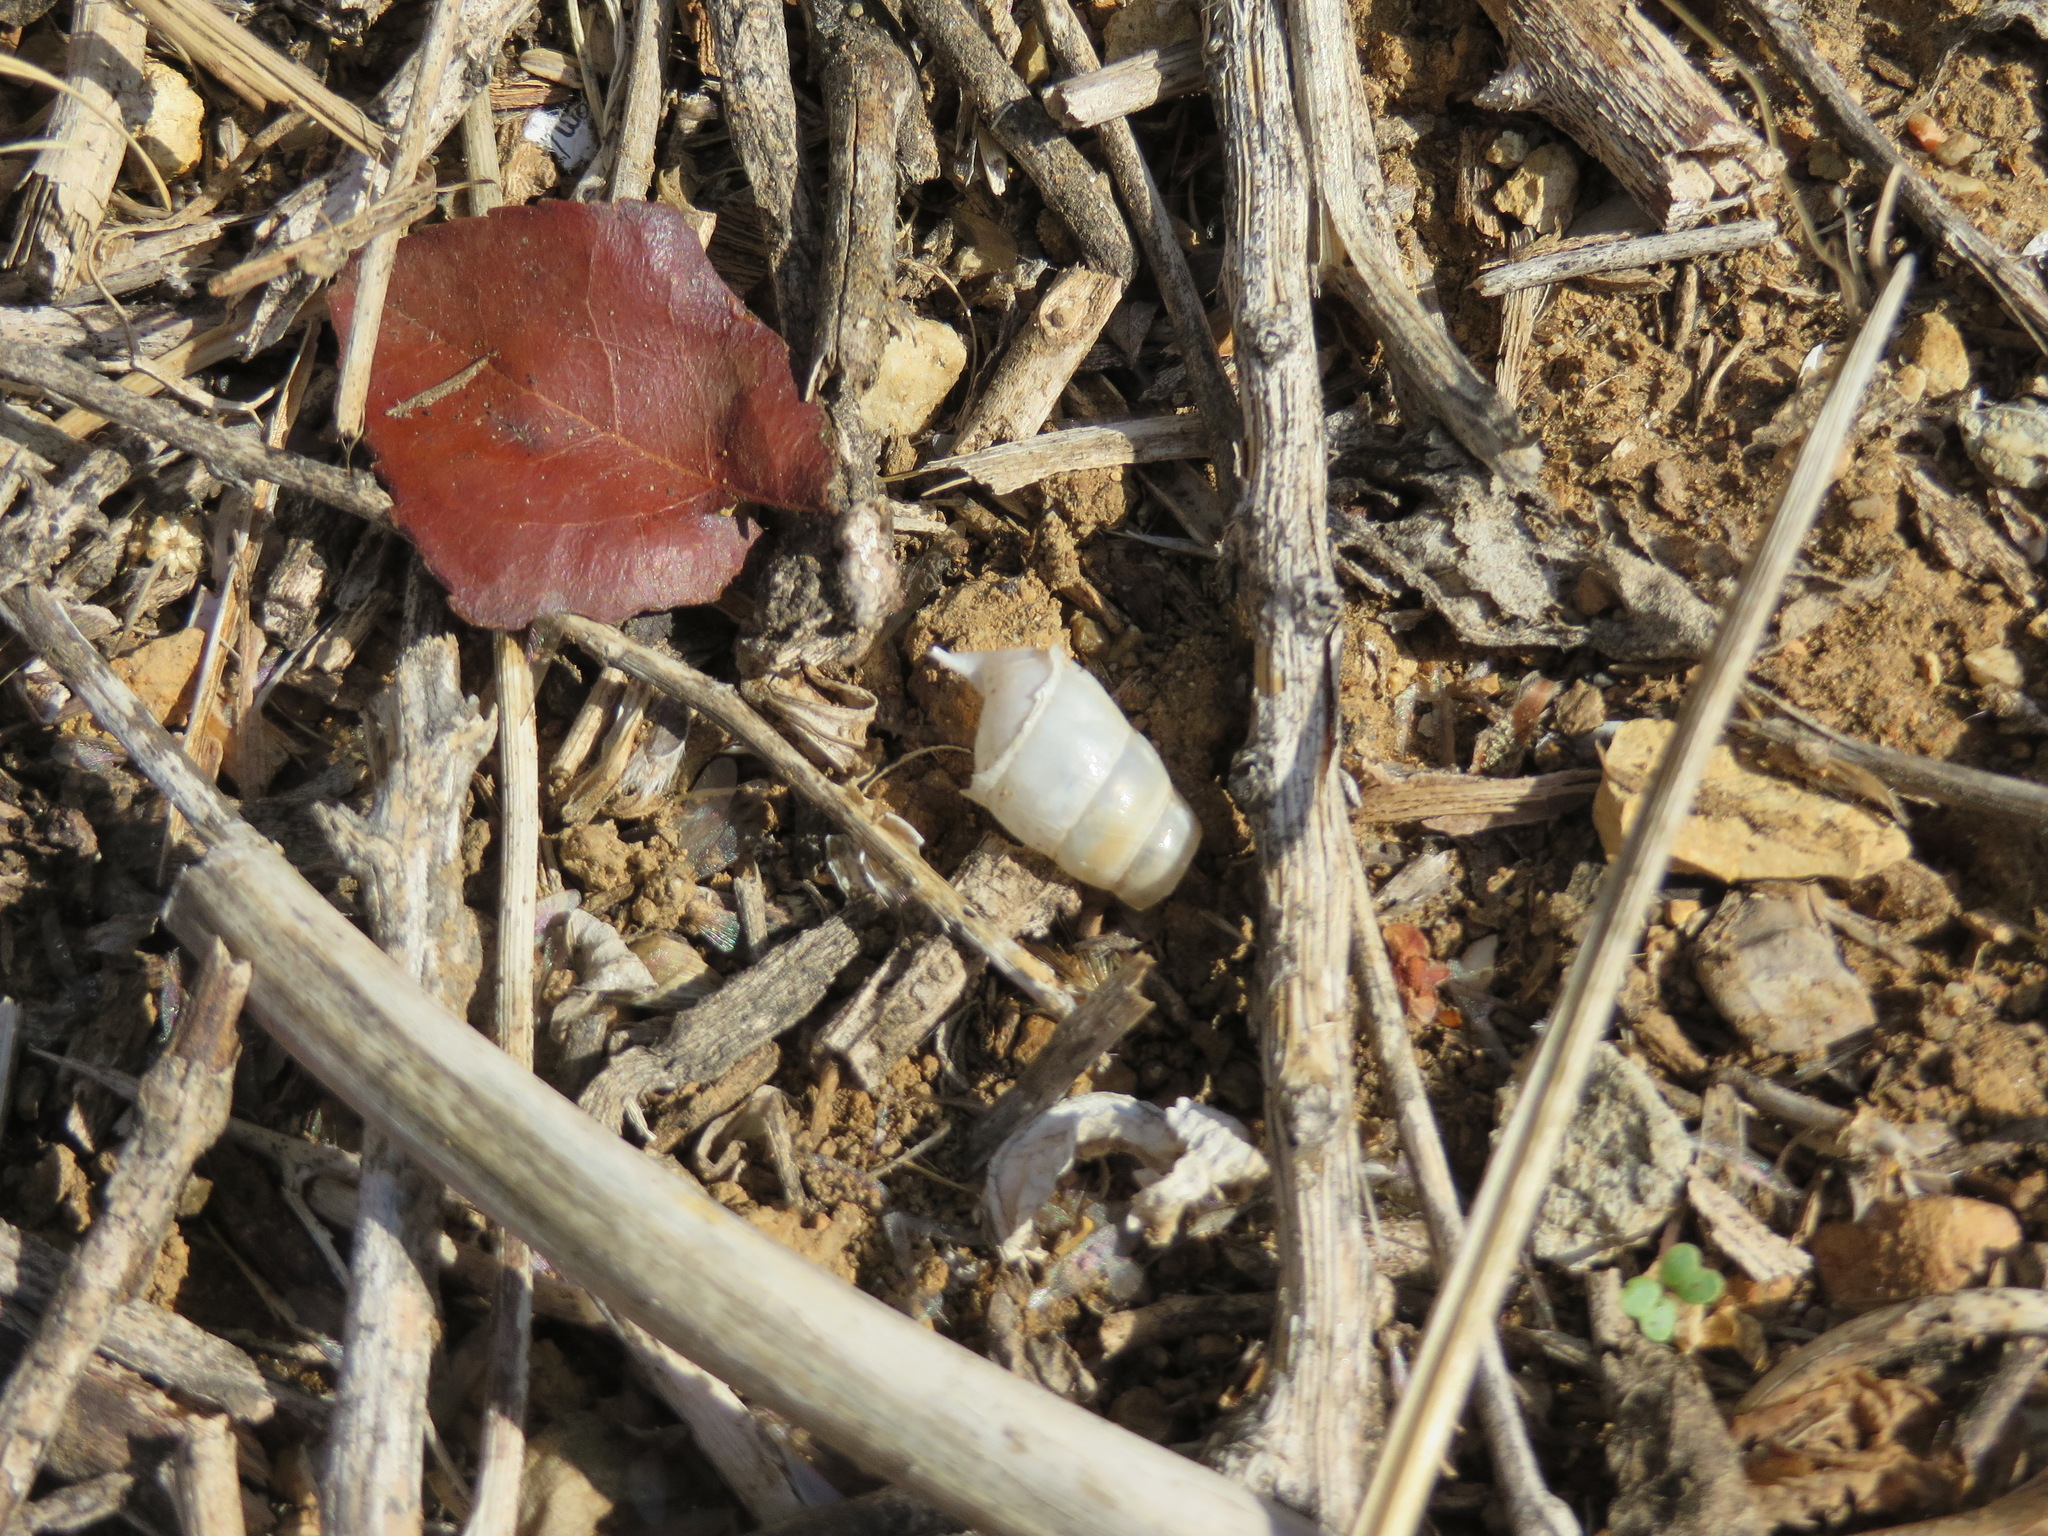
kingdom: Animalia
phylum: Mollusca
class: Gastropoda
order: Stylommatophora
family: Achatinidae
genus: Rumina
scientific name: Rumina decollata
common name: Decollate snail
